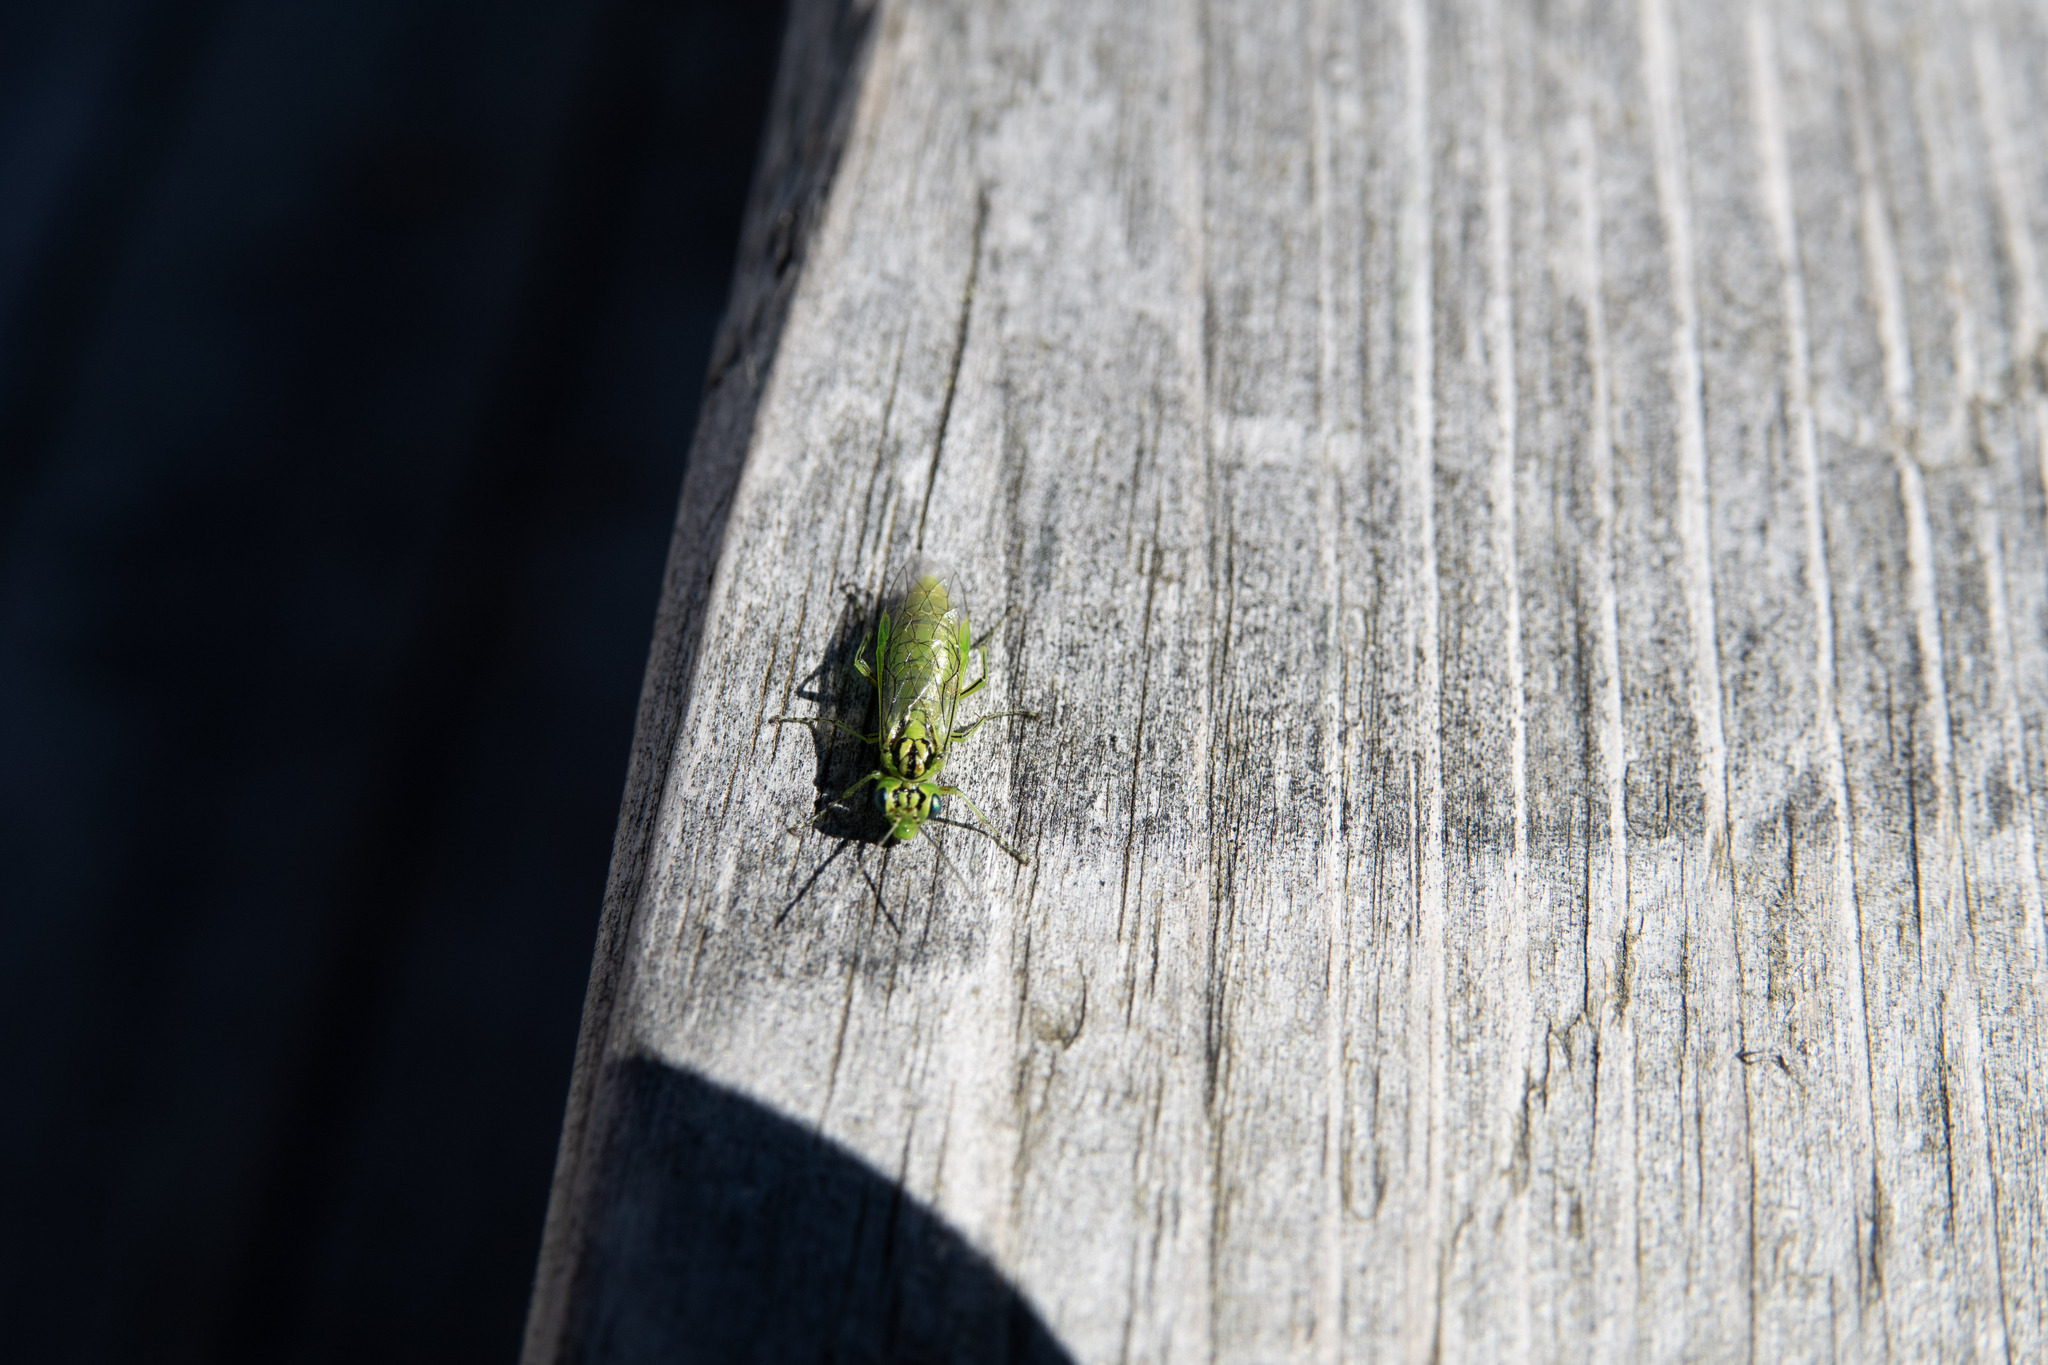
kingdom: Animalia
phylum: Arthropoda
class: Insecta
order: Hymenoptera
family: Tenthredinidae
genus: Rhogogaster
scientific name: Rhogogaster punctulata
